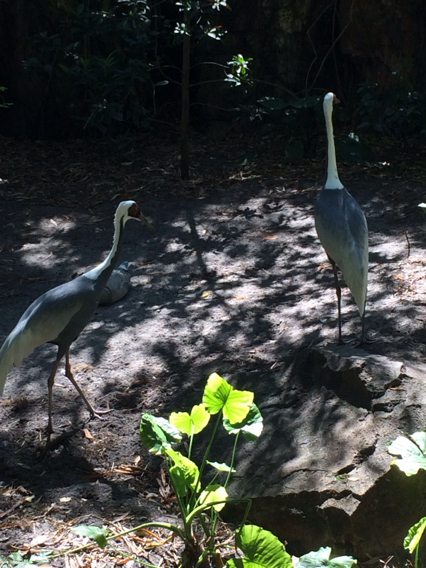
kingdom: Animalia
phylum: Chordata
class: Aves
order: Gruiformes
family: Gruidae
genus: Grus
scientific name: Grus canadensis
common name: Sandhill crane
